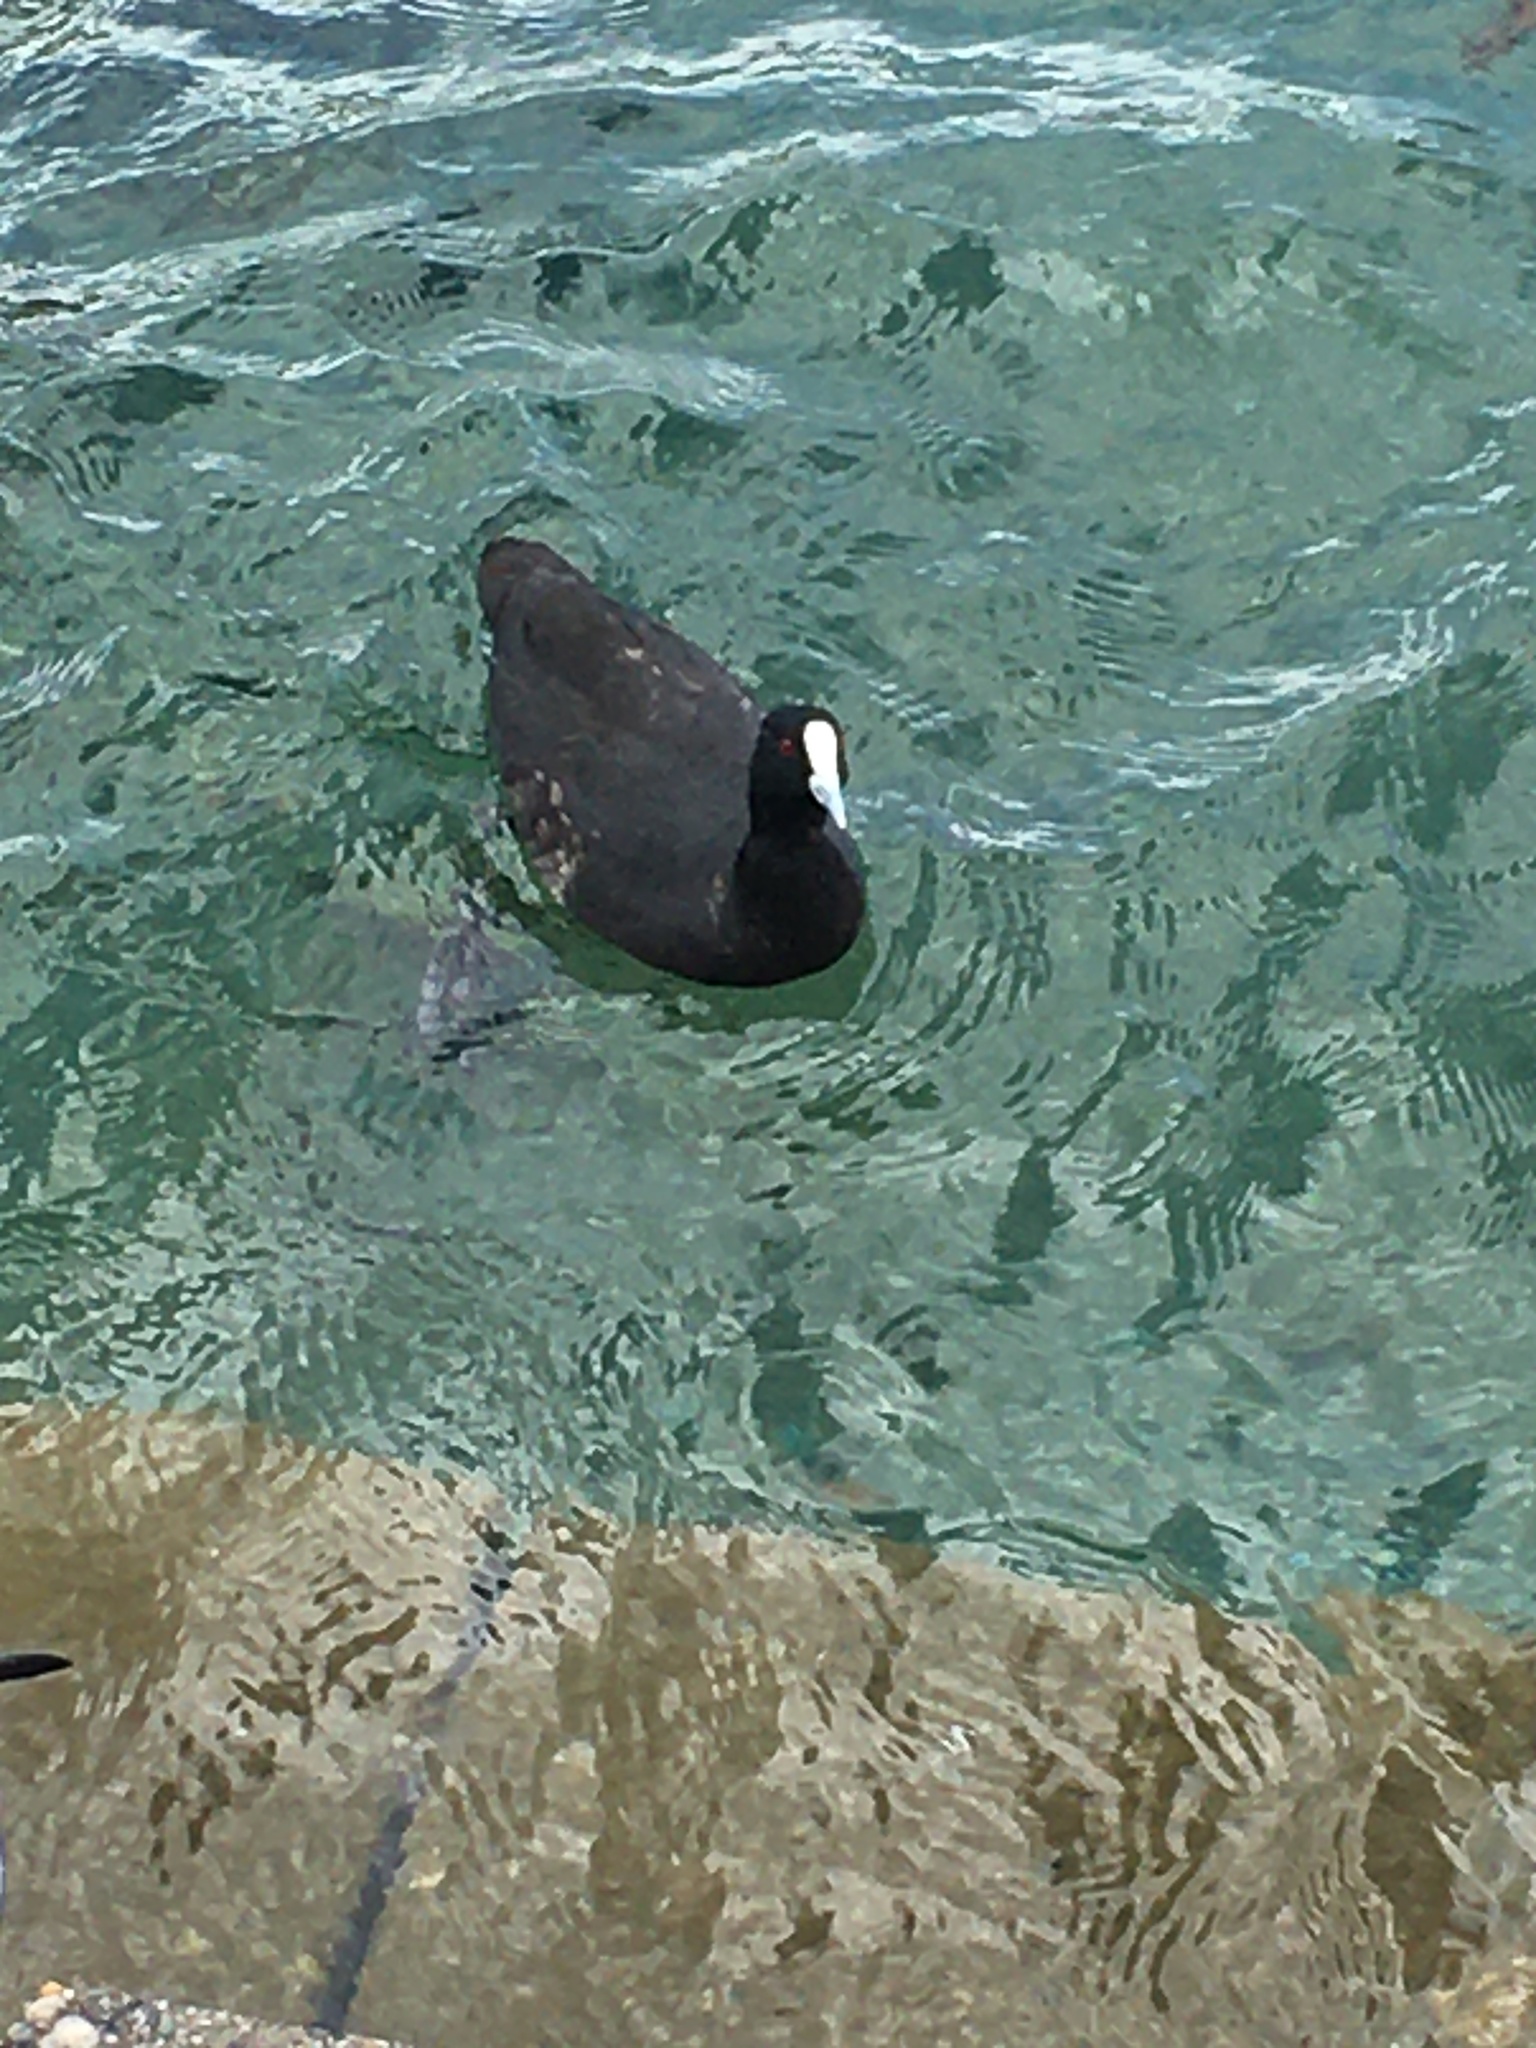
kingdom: Animalia
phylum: Chordata
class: Aves
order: Gruiformes
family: Rallidae
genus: Fulica
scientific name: Fulica atra
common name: Eurasian coot
